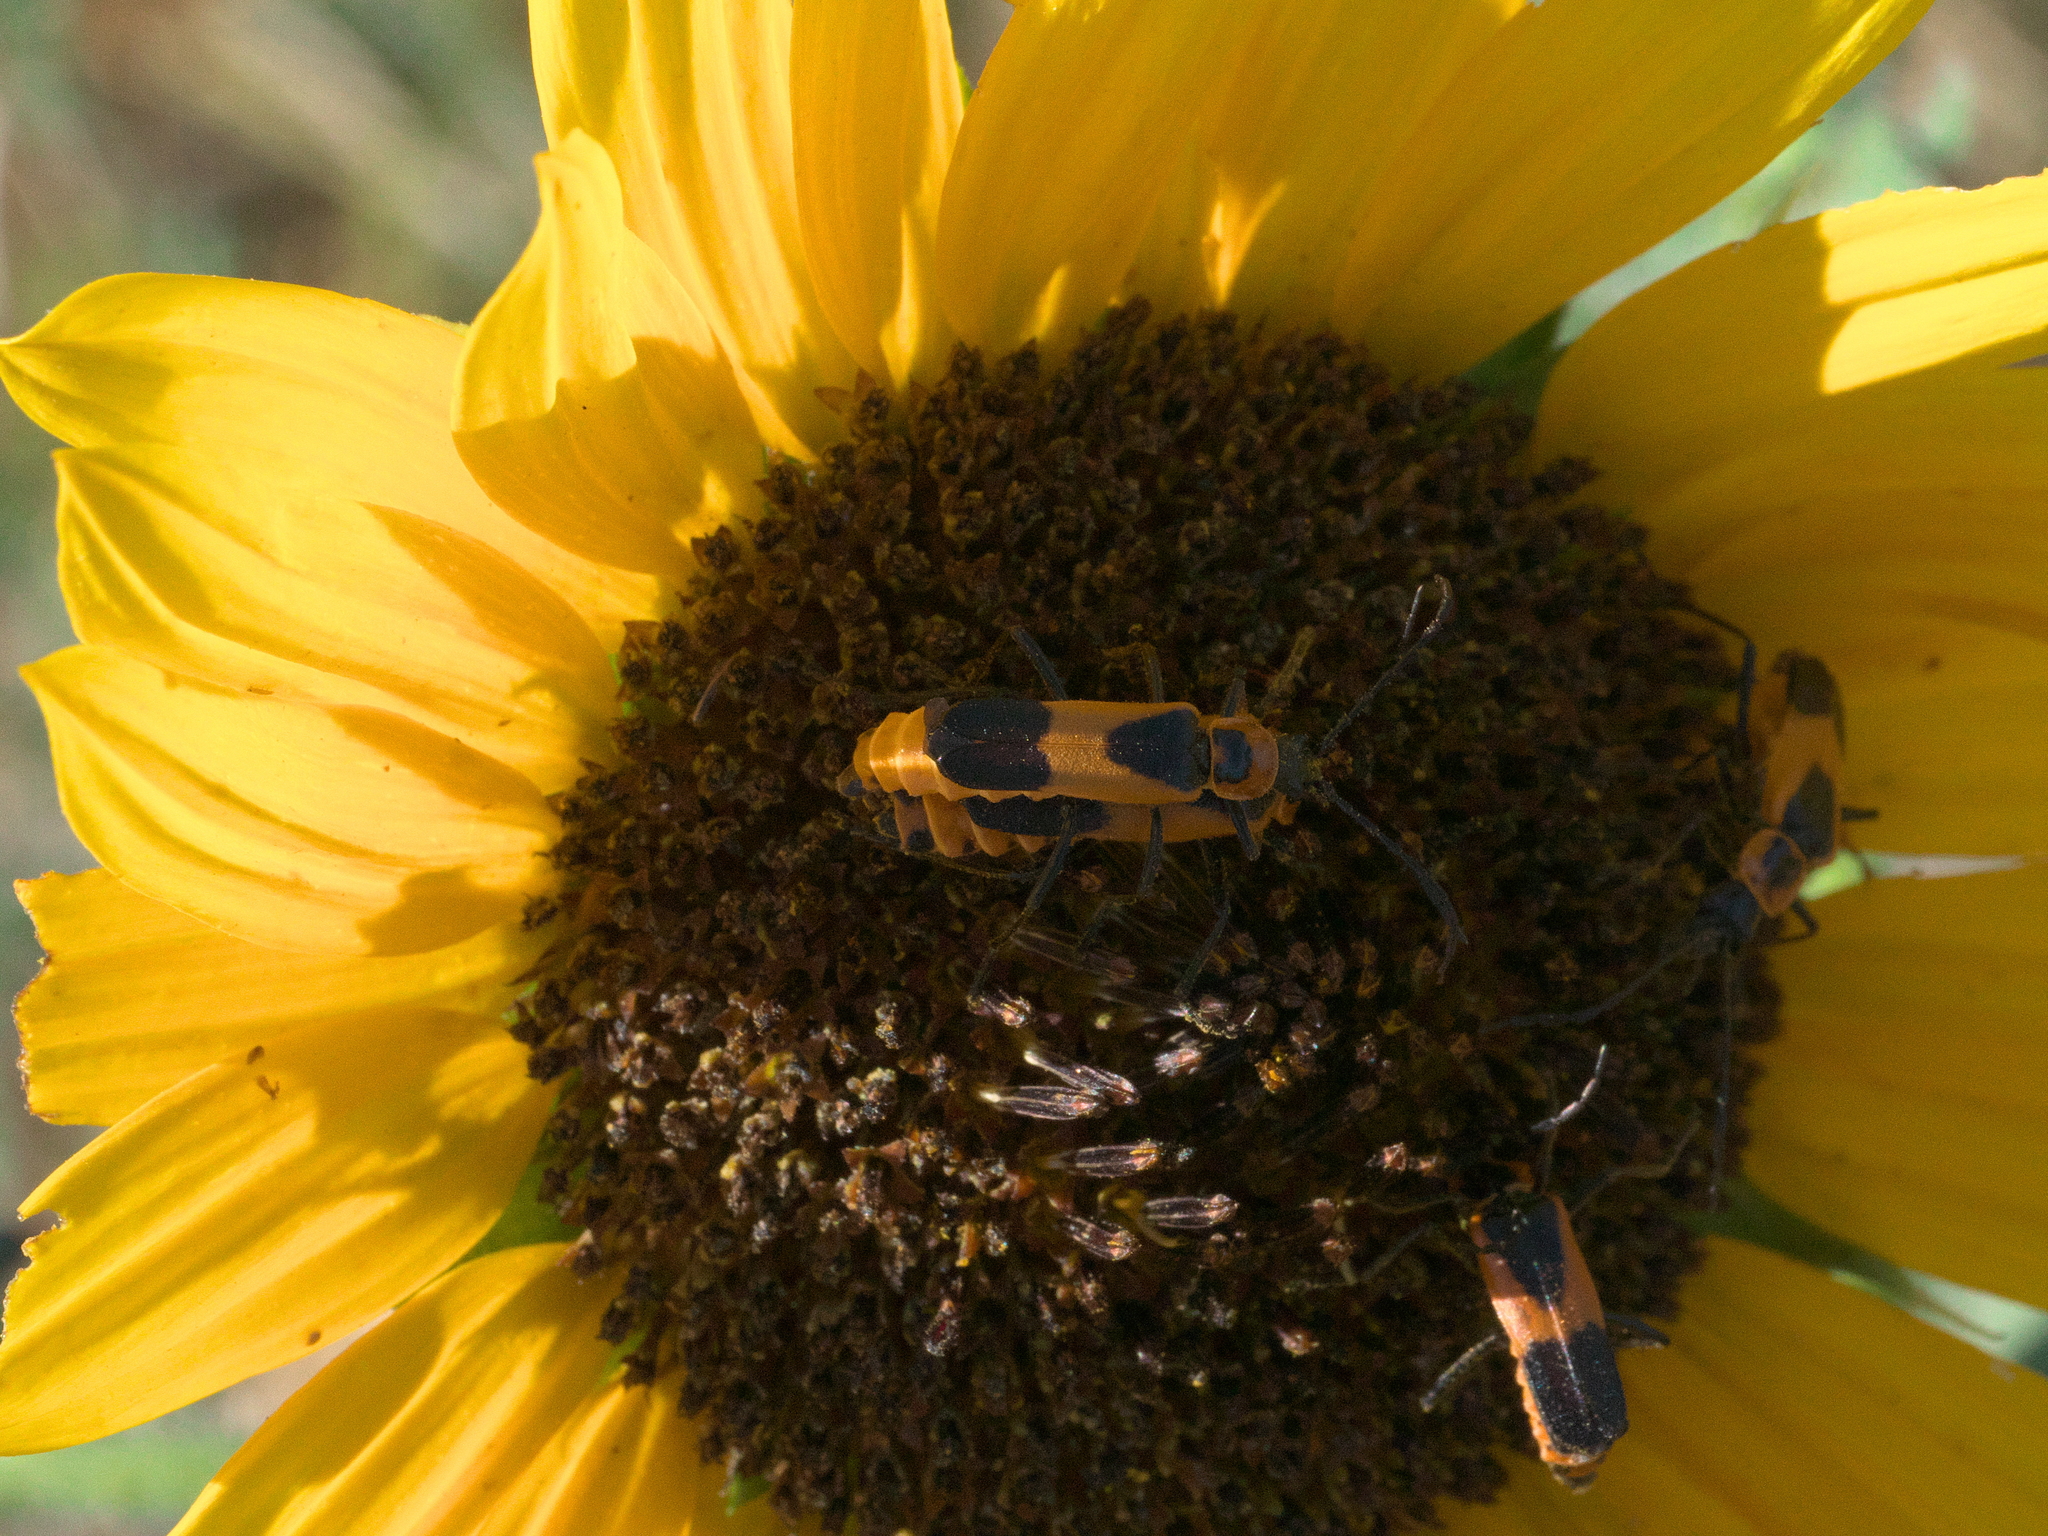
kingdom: Animalia
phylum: Arthropoda
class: Insecta
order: Coleoptera
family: Cantharidae
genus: Chauliognathus
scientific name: Chauliognathus basalis
